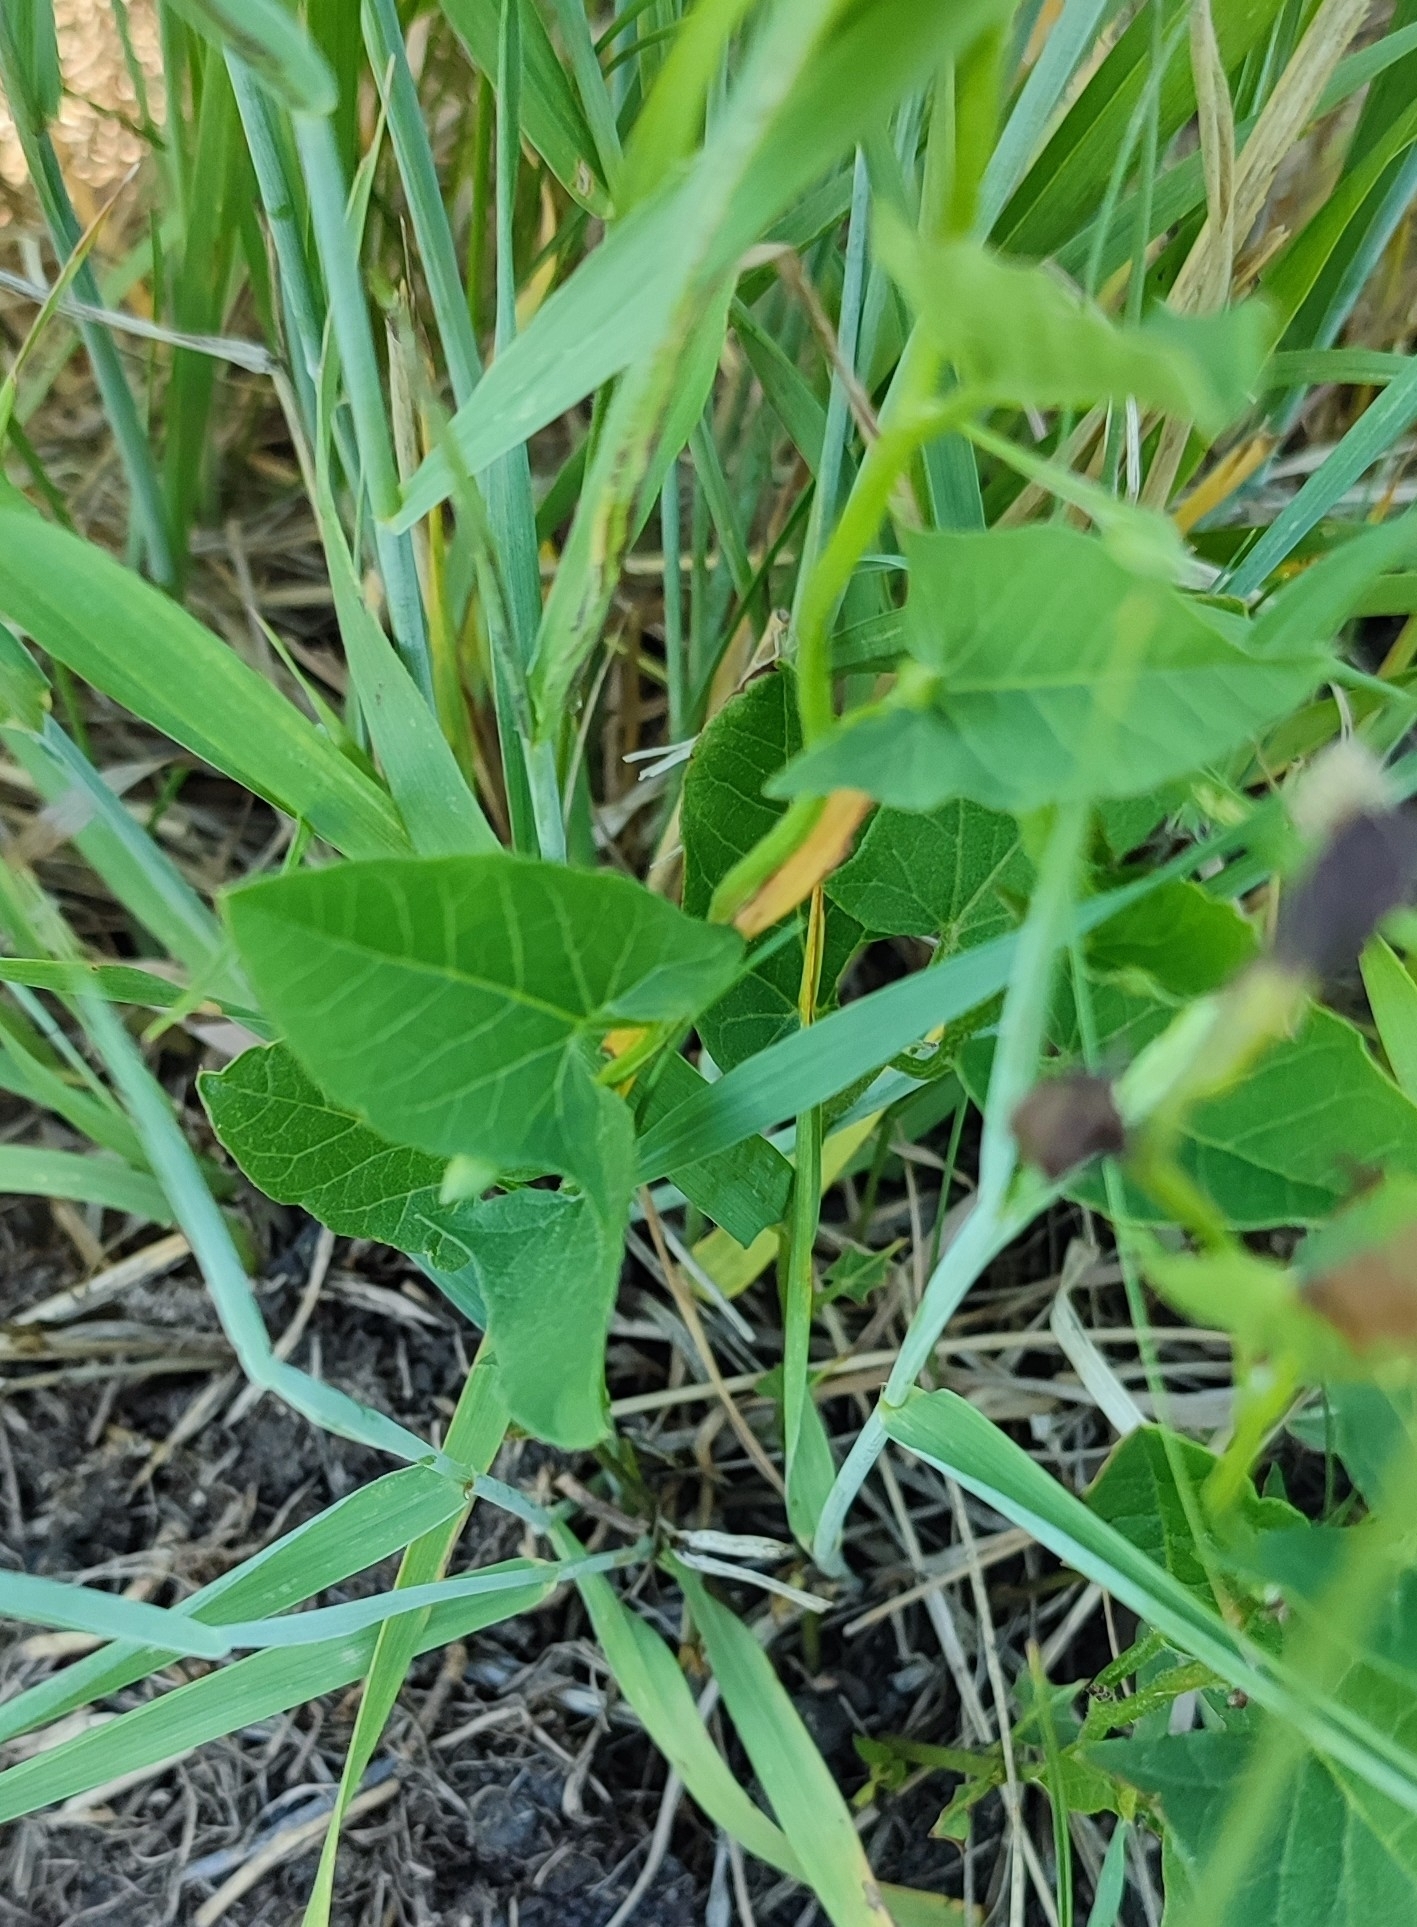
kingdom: Plantae
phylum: Tracheophyta
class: Magnoliopsida
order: Solanales
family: Convolvulaceae
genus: Convolvulus
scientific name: Convolvulus arvensis
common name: Field bindweed
